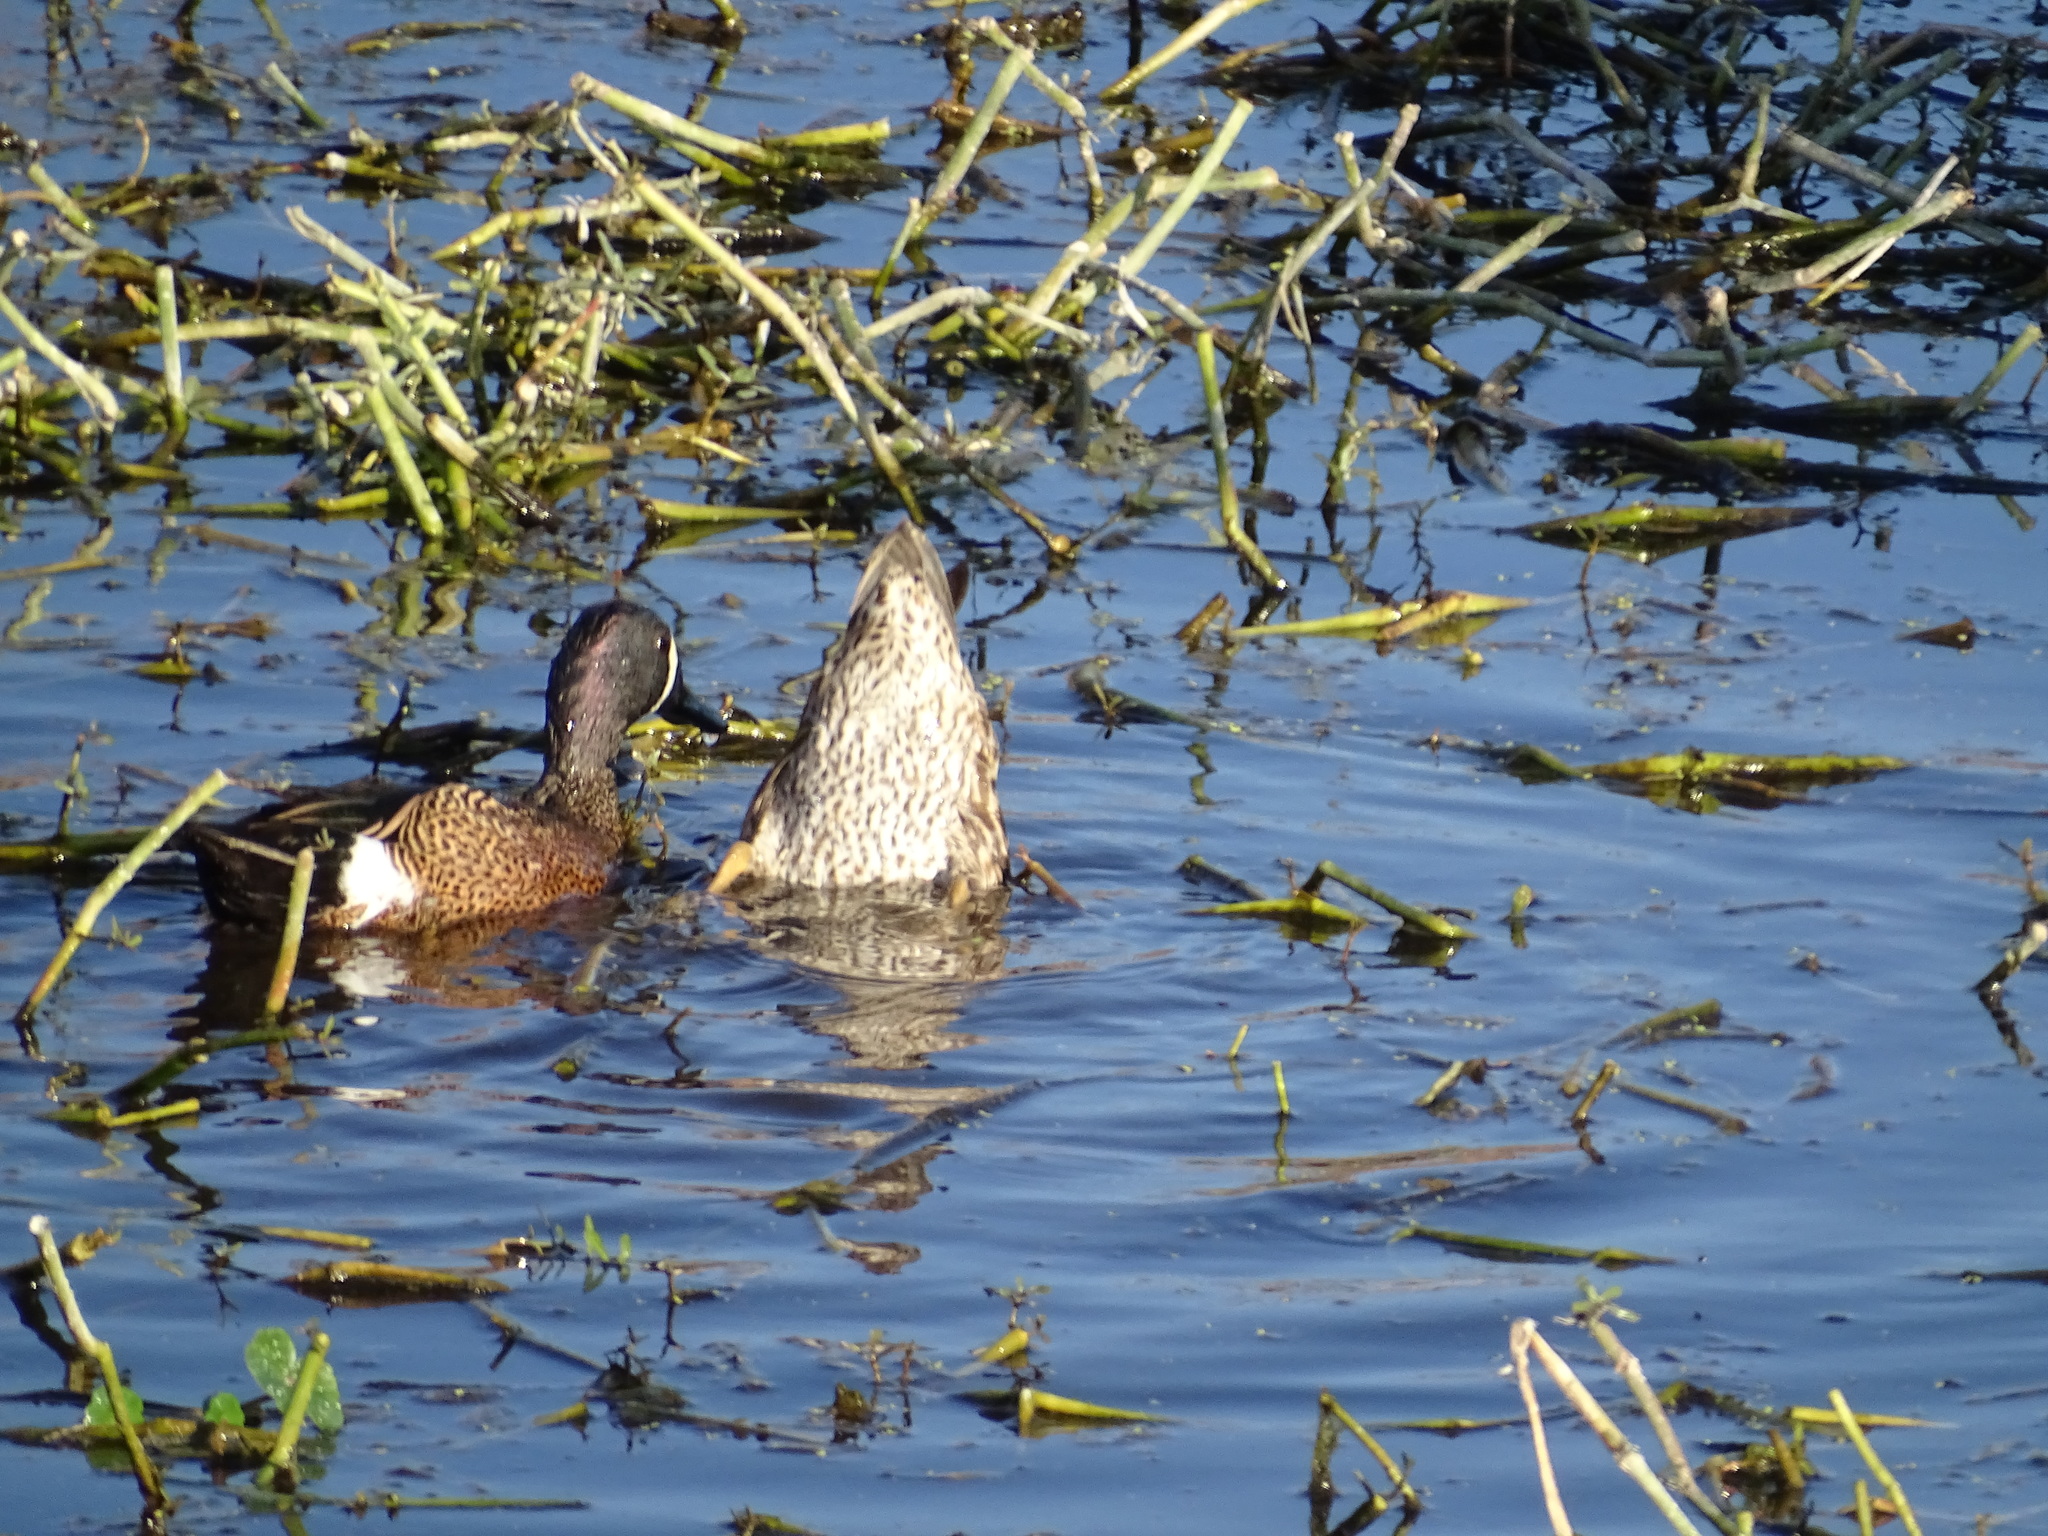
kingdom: Animalia
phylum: Chordata
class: Aves
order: Anseriformes
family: Anatidae
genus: Spatula
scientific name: Spatula discors
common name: Blue-winged teal
